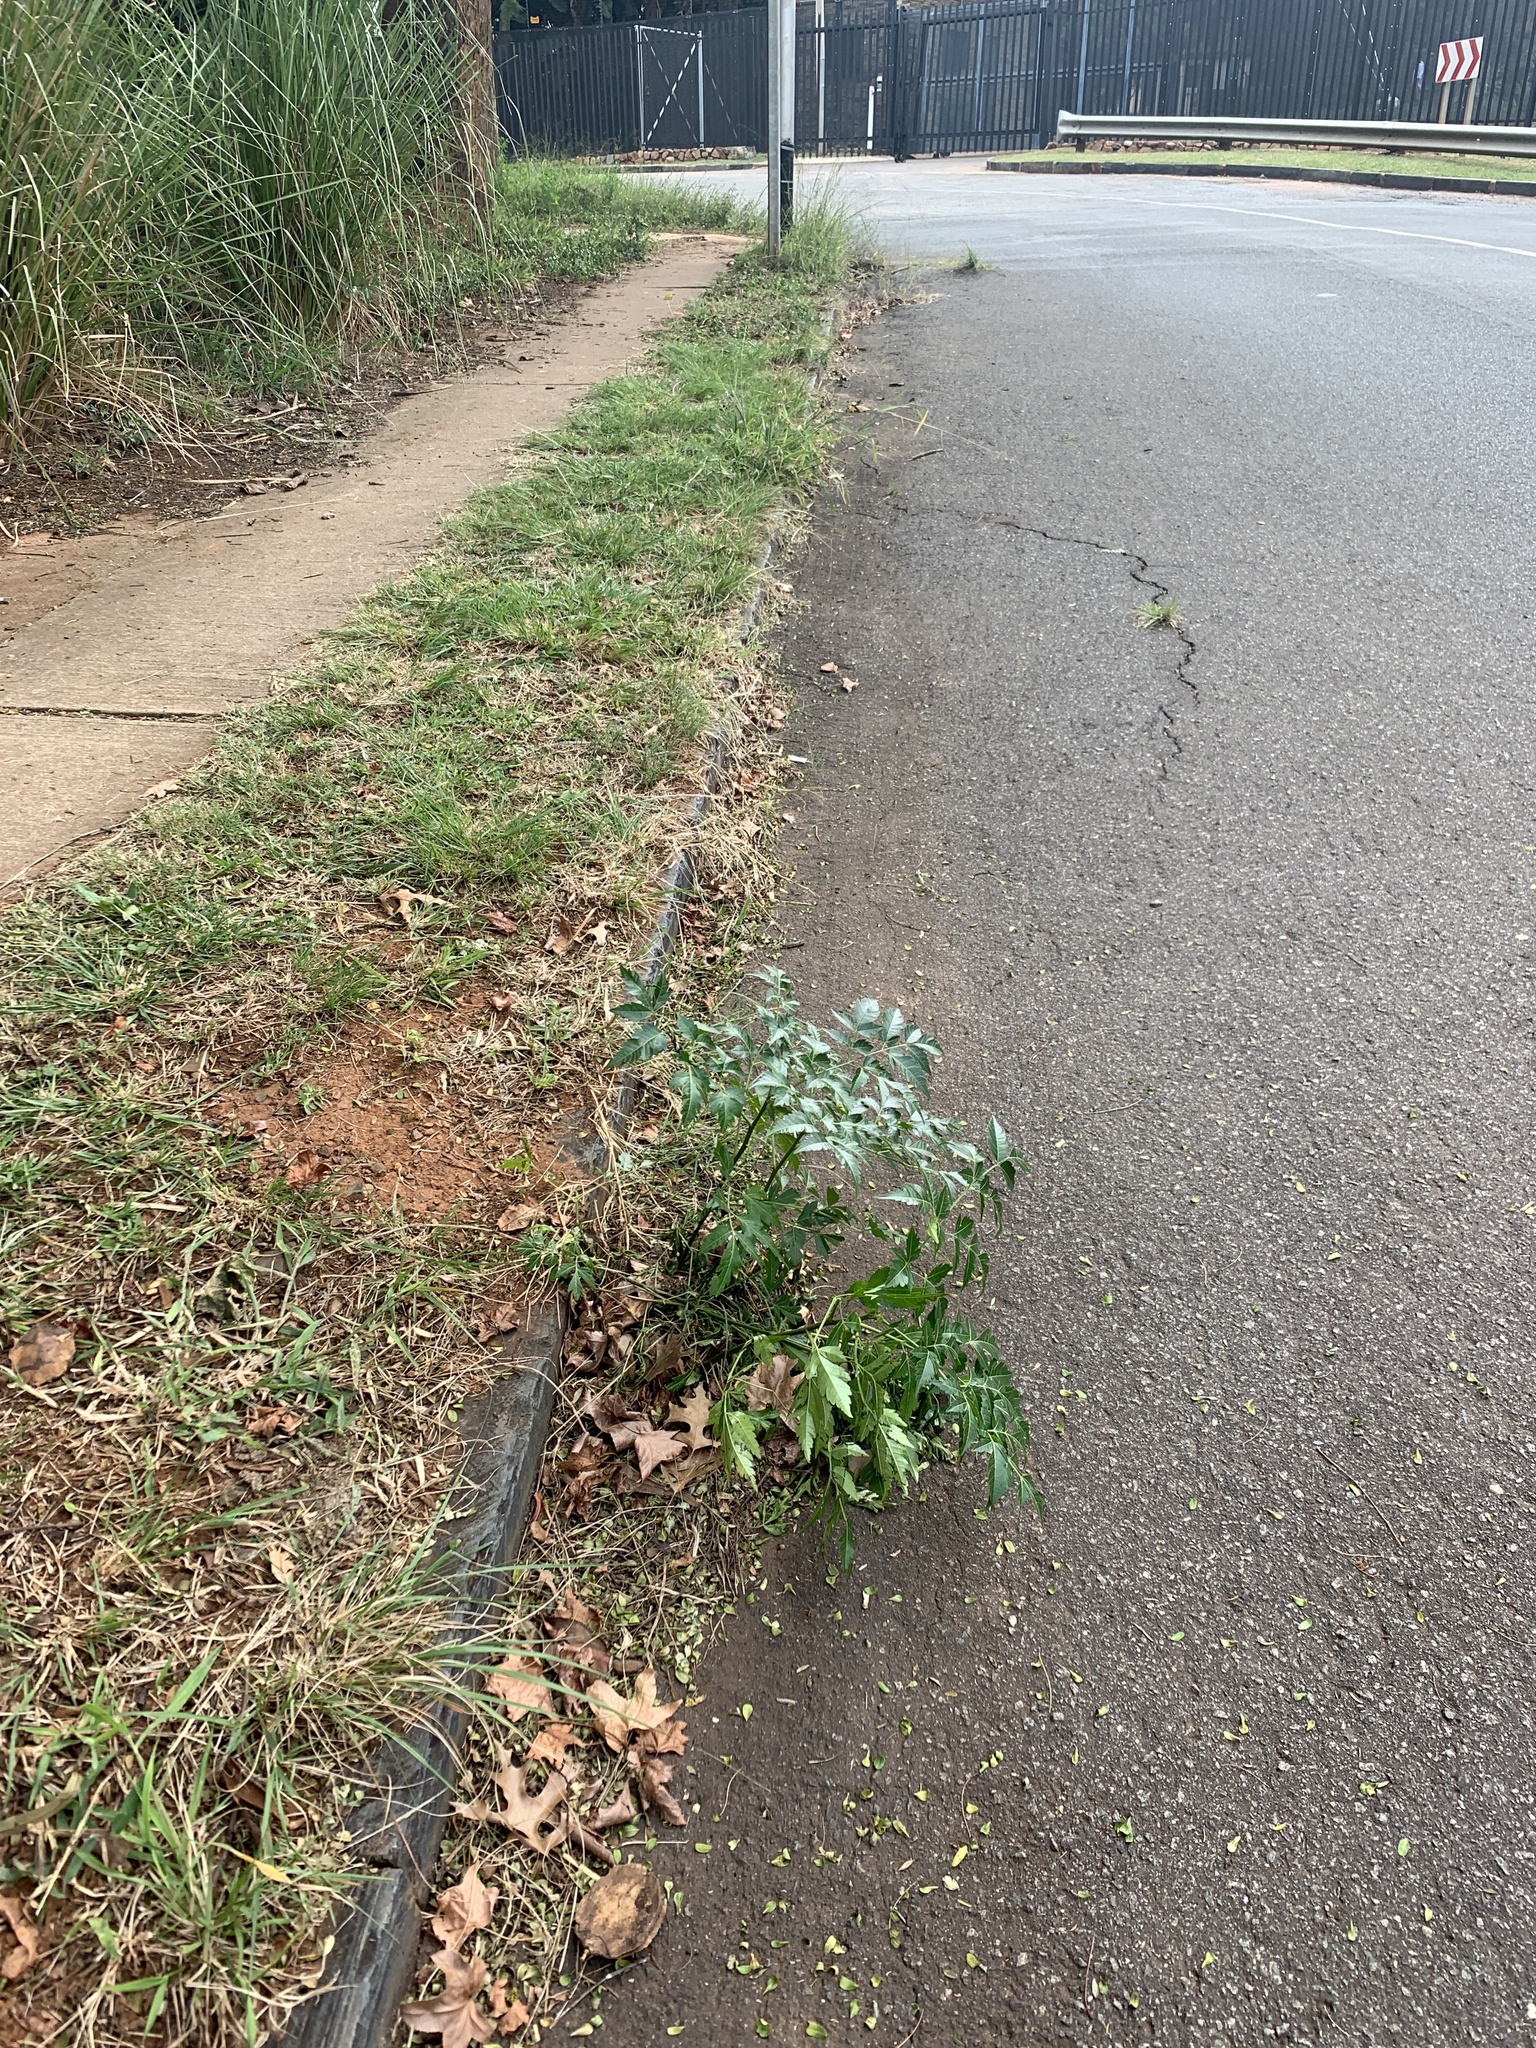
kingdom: Plantae
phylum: Tracheophyta
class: Magnoliopsida
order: Sapindales
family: Meliaceae
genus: Melia
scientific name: Melia azedarach
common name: Chinaberrytree
